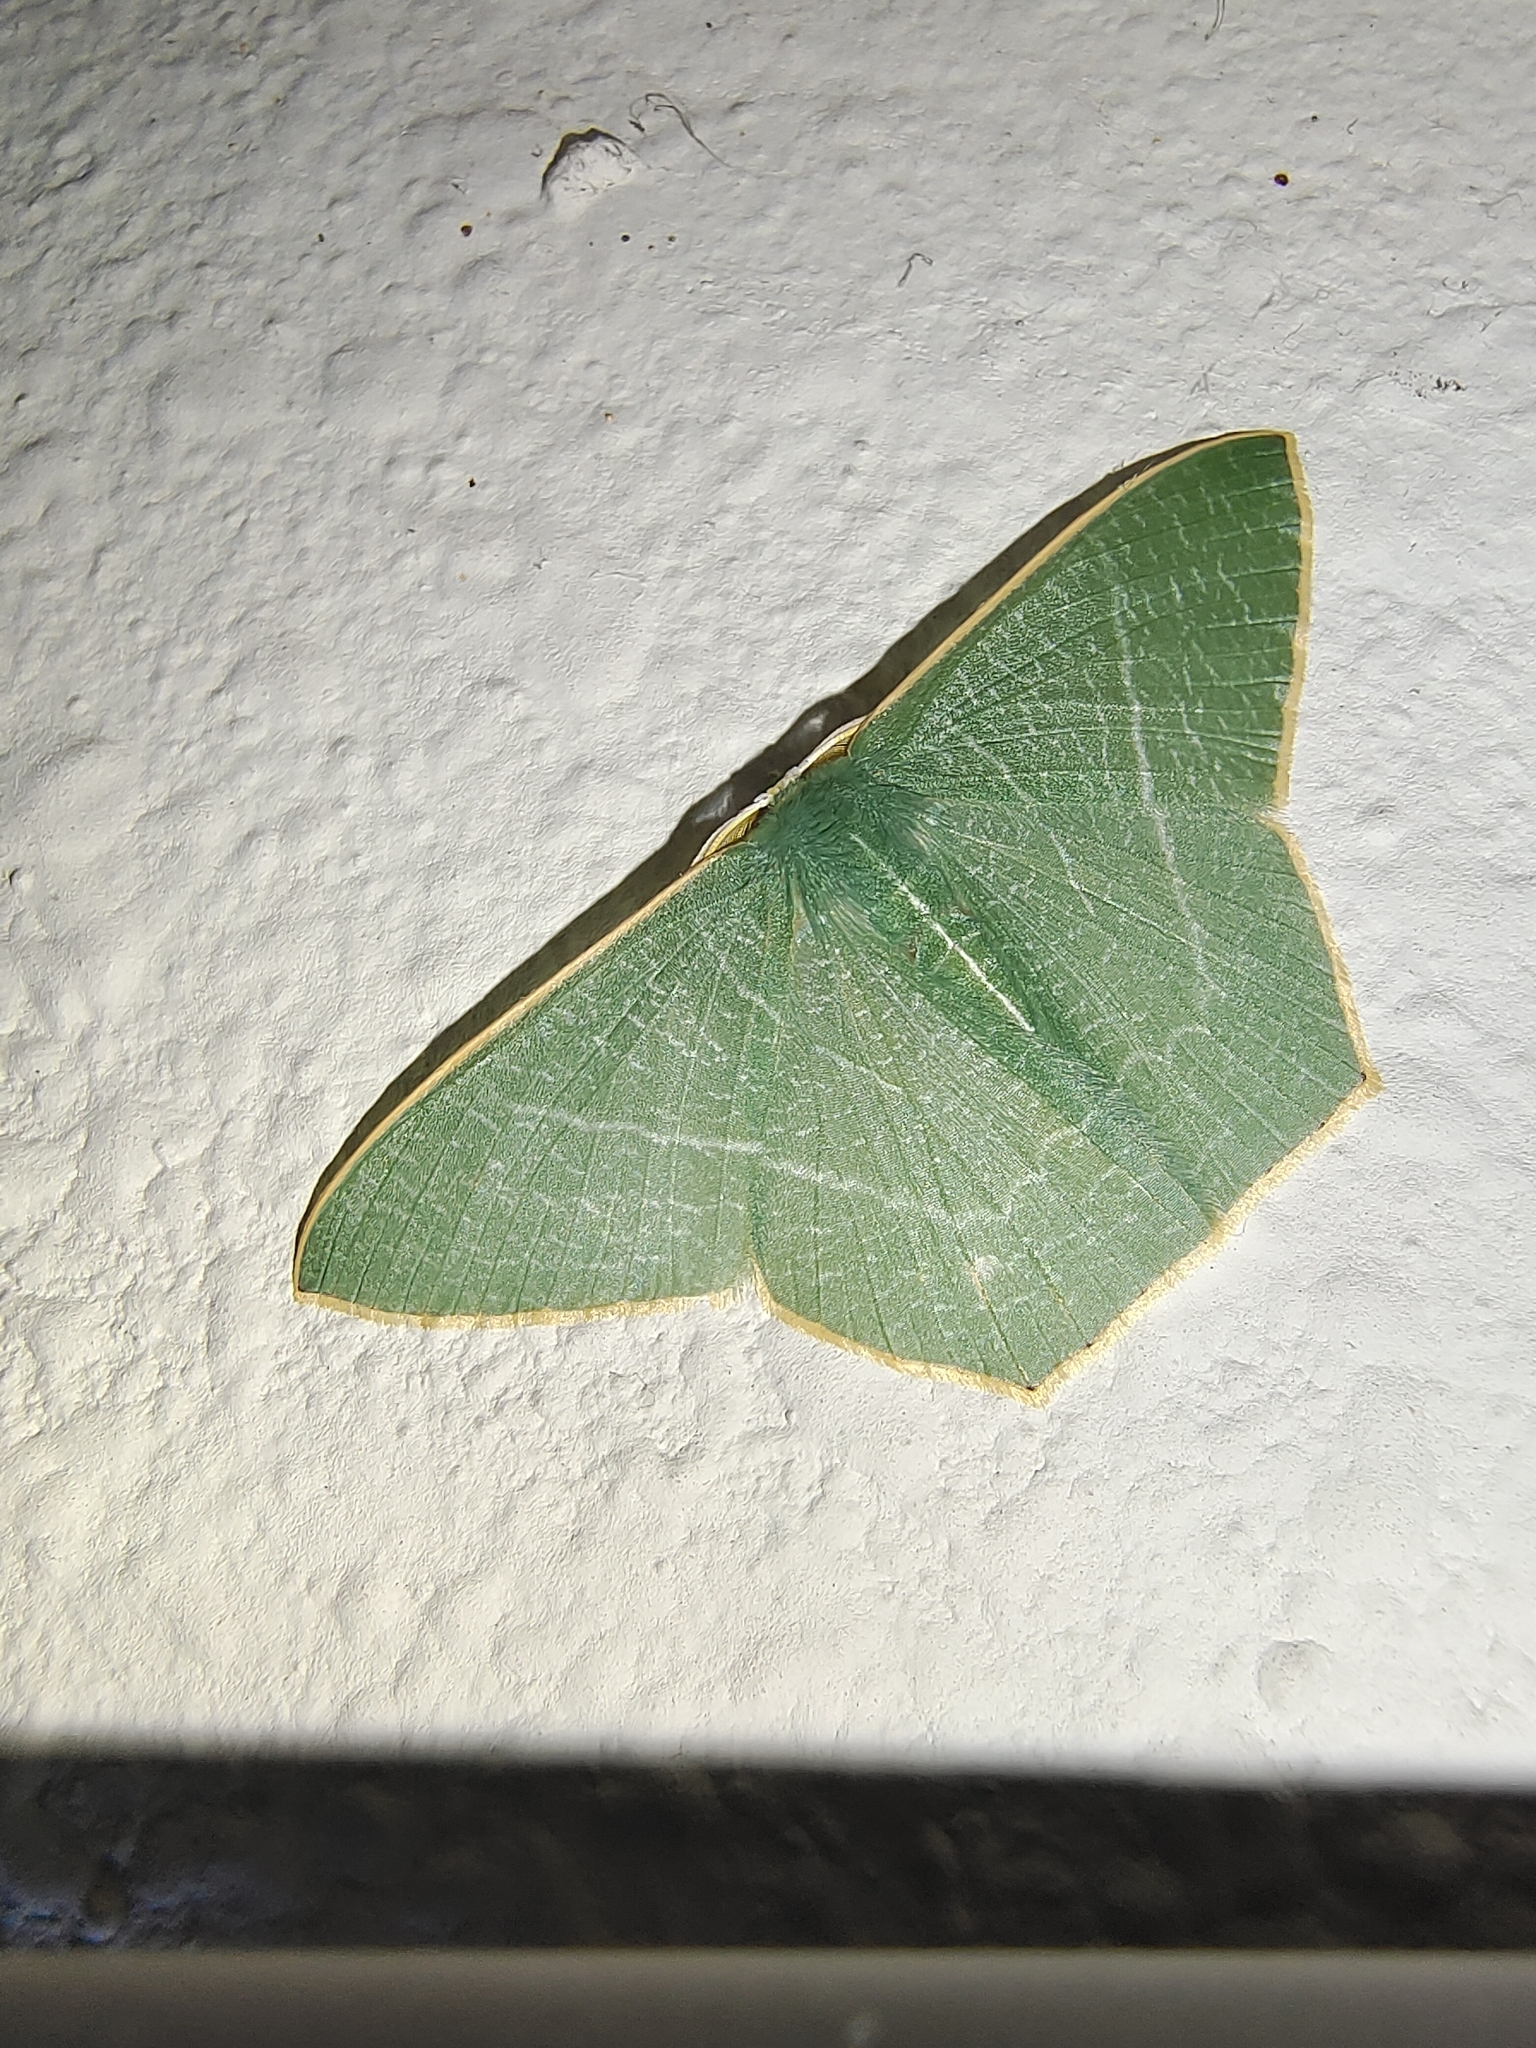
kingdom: Animalia
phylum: Arthropoda
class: Insecta
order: Lepidoptera
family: Geometridae
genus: Pelagodes
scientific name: Pelagodes antiquadraria
